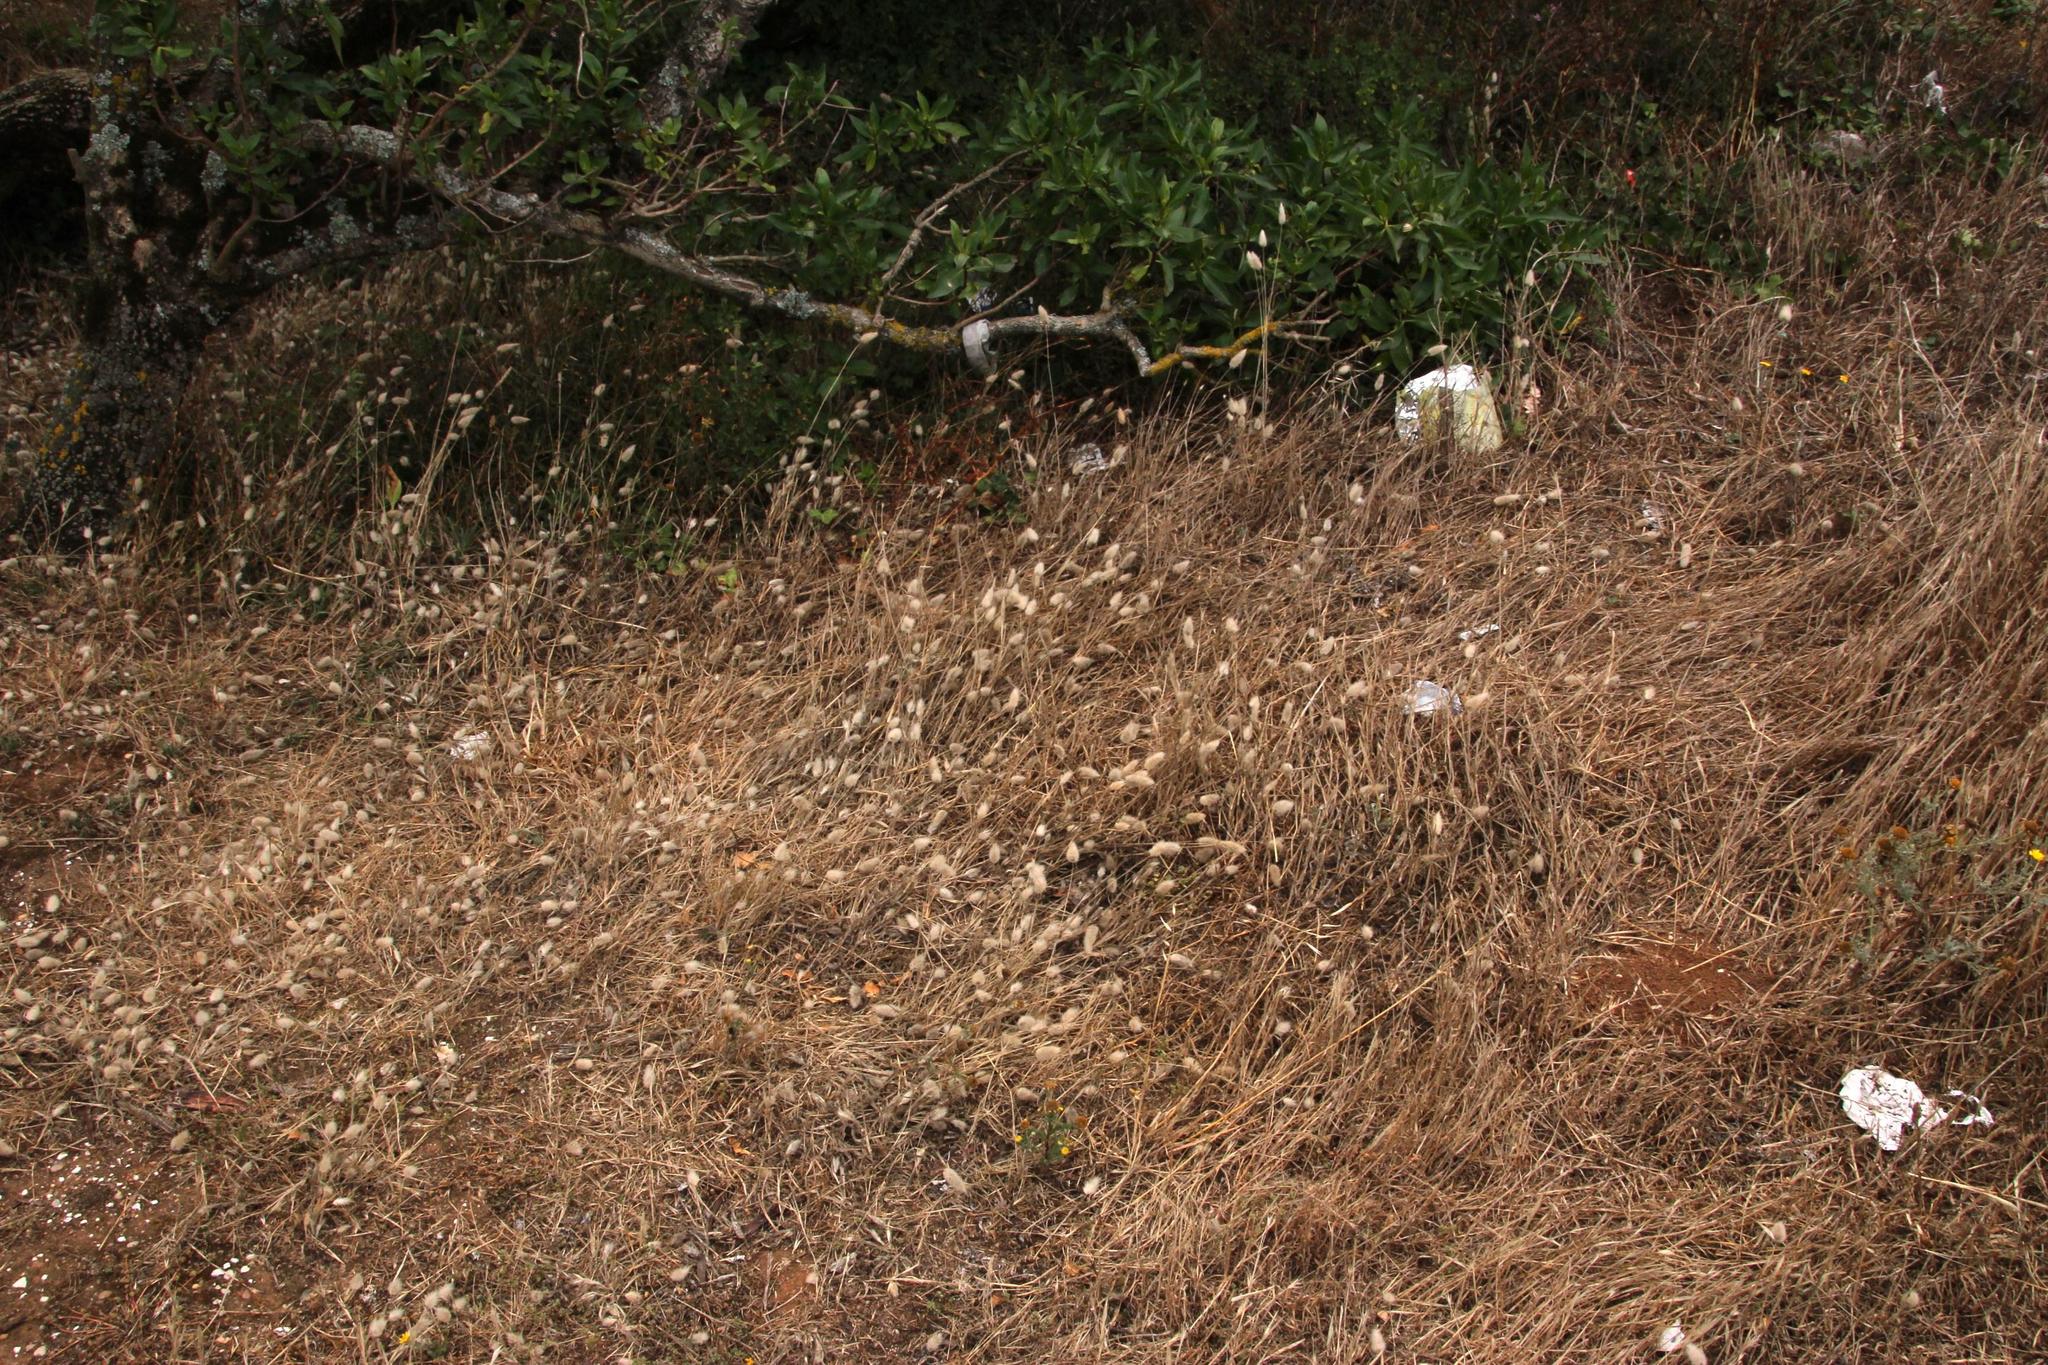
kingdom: Plantae
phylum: Tracheophyta
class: Liliopsida
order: Poales
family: Poaceae
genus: Lagurus
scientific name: Lagurus ovatus
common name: Hare's-tail
